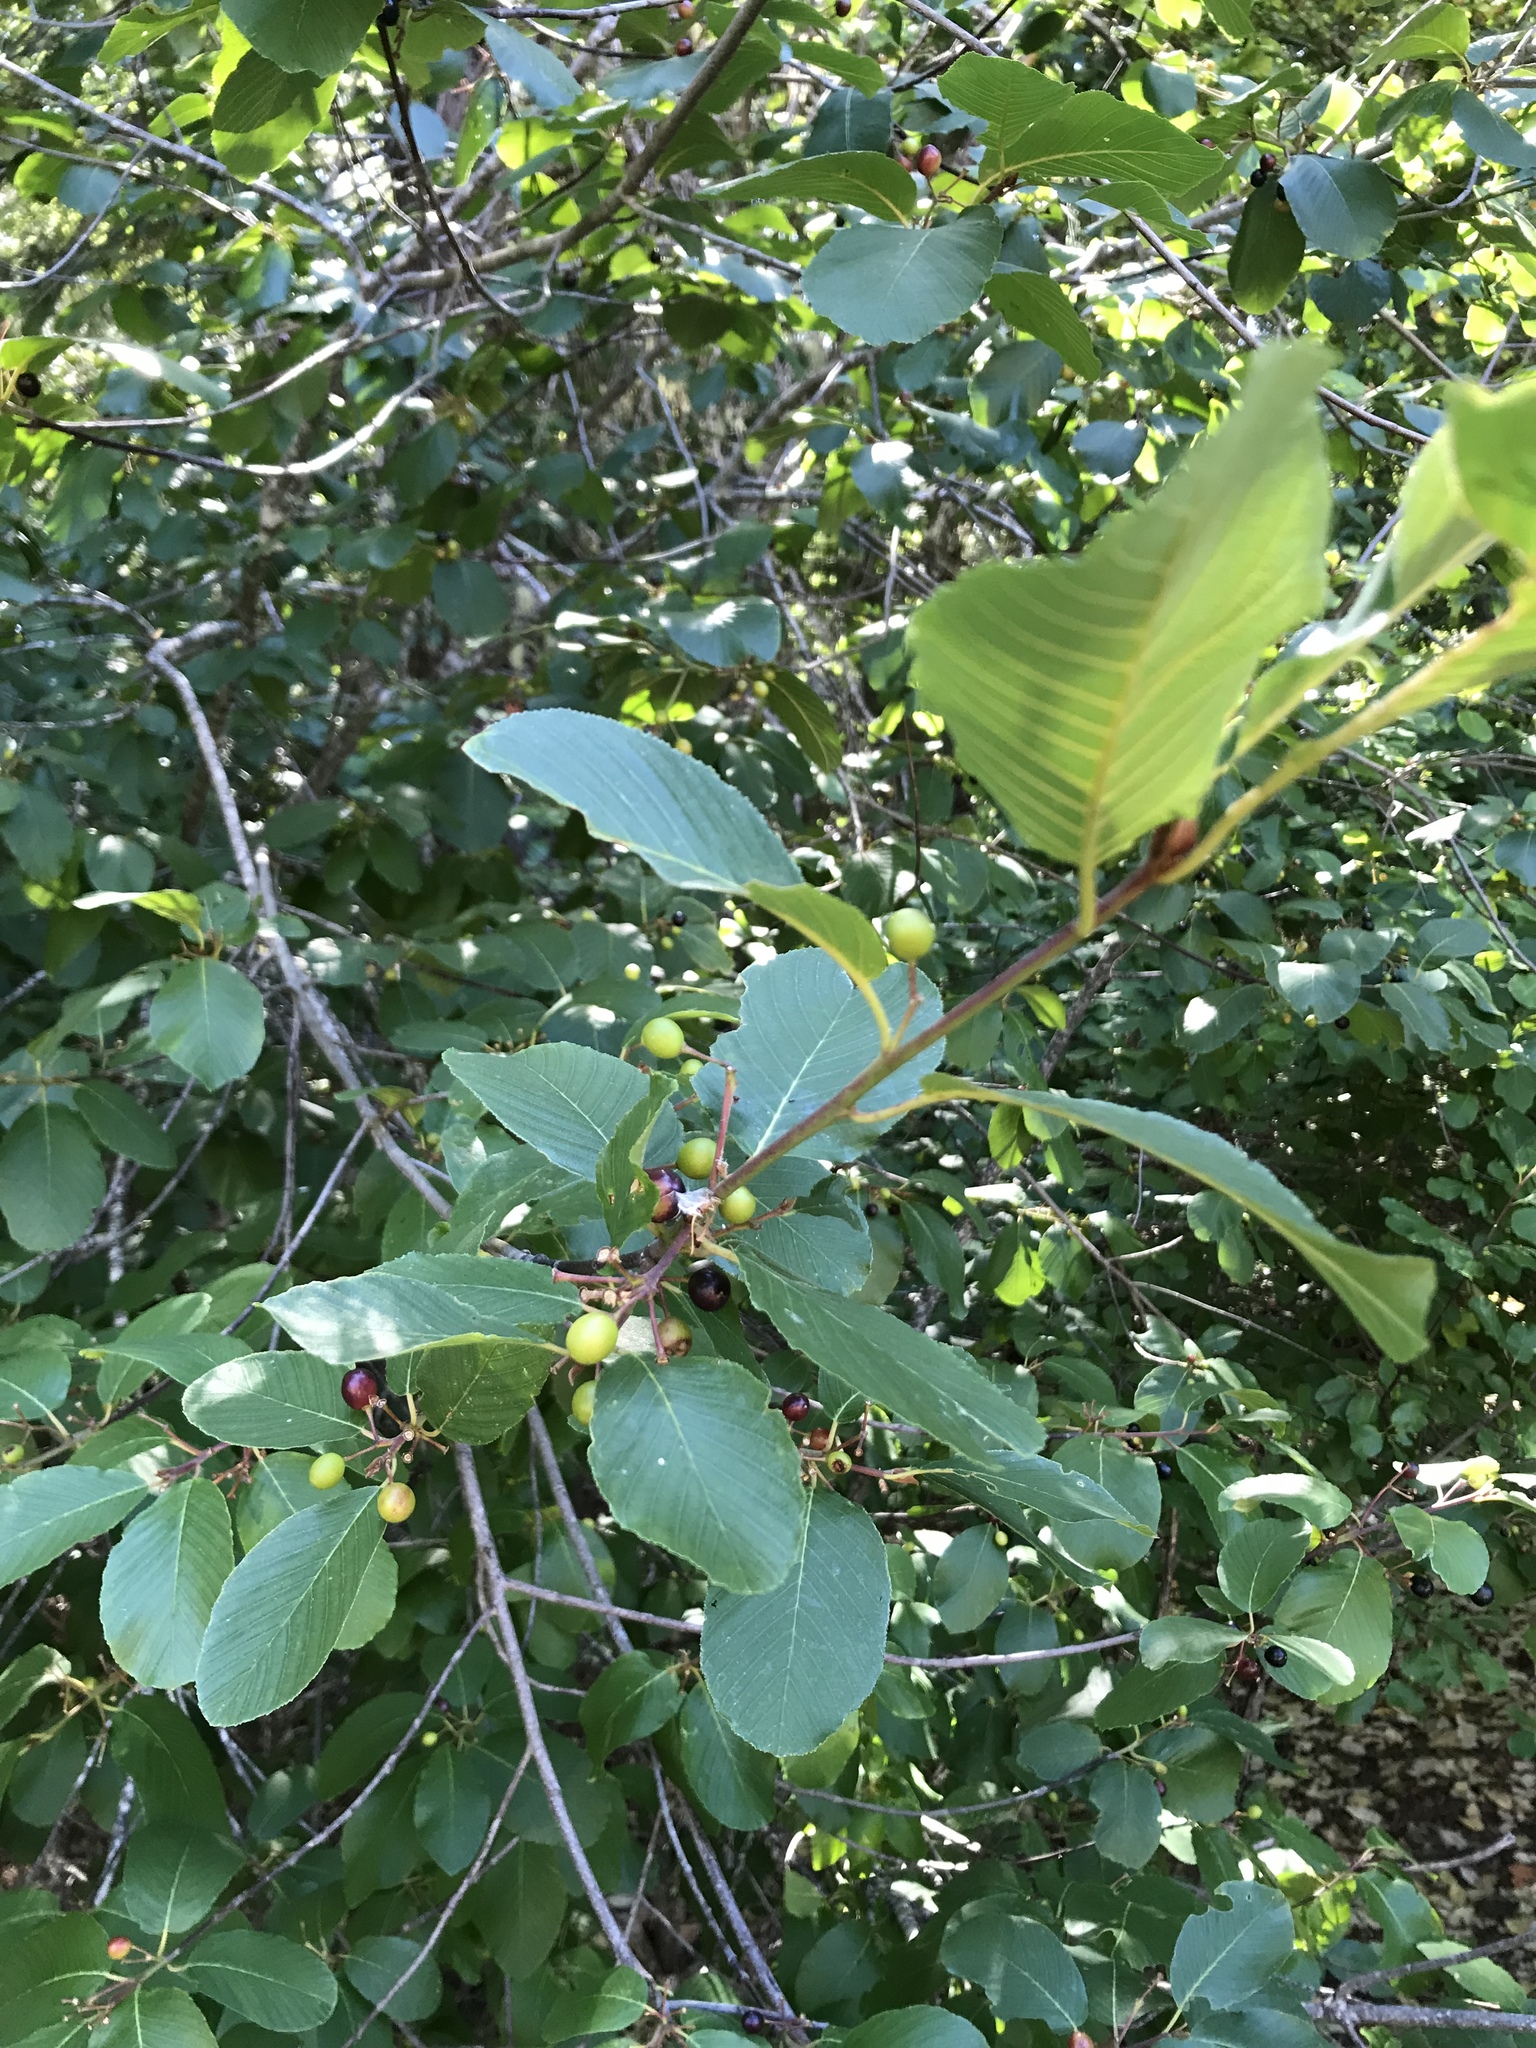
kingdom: Plantae
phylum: Tracheophyta
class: Magnoliopsida
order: Rosales
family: Rhamnaceae
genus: Frangula
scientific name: Frangula purshiana
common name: Cascara buckthorn
